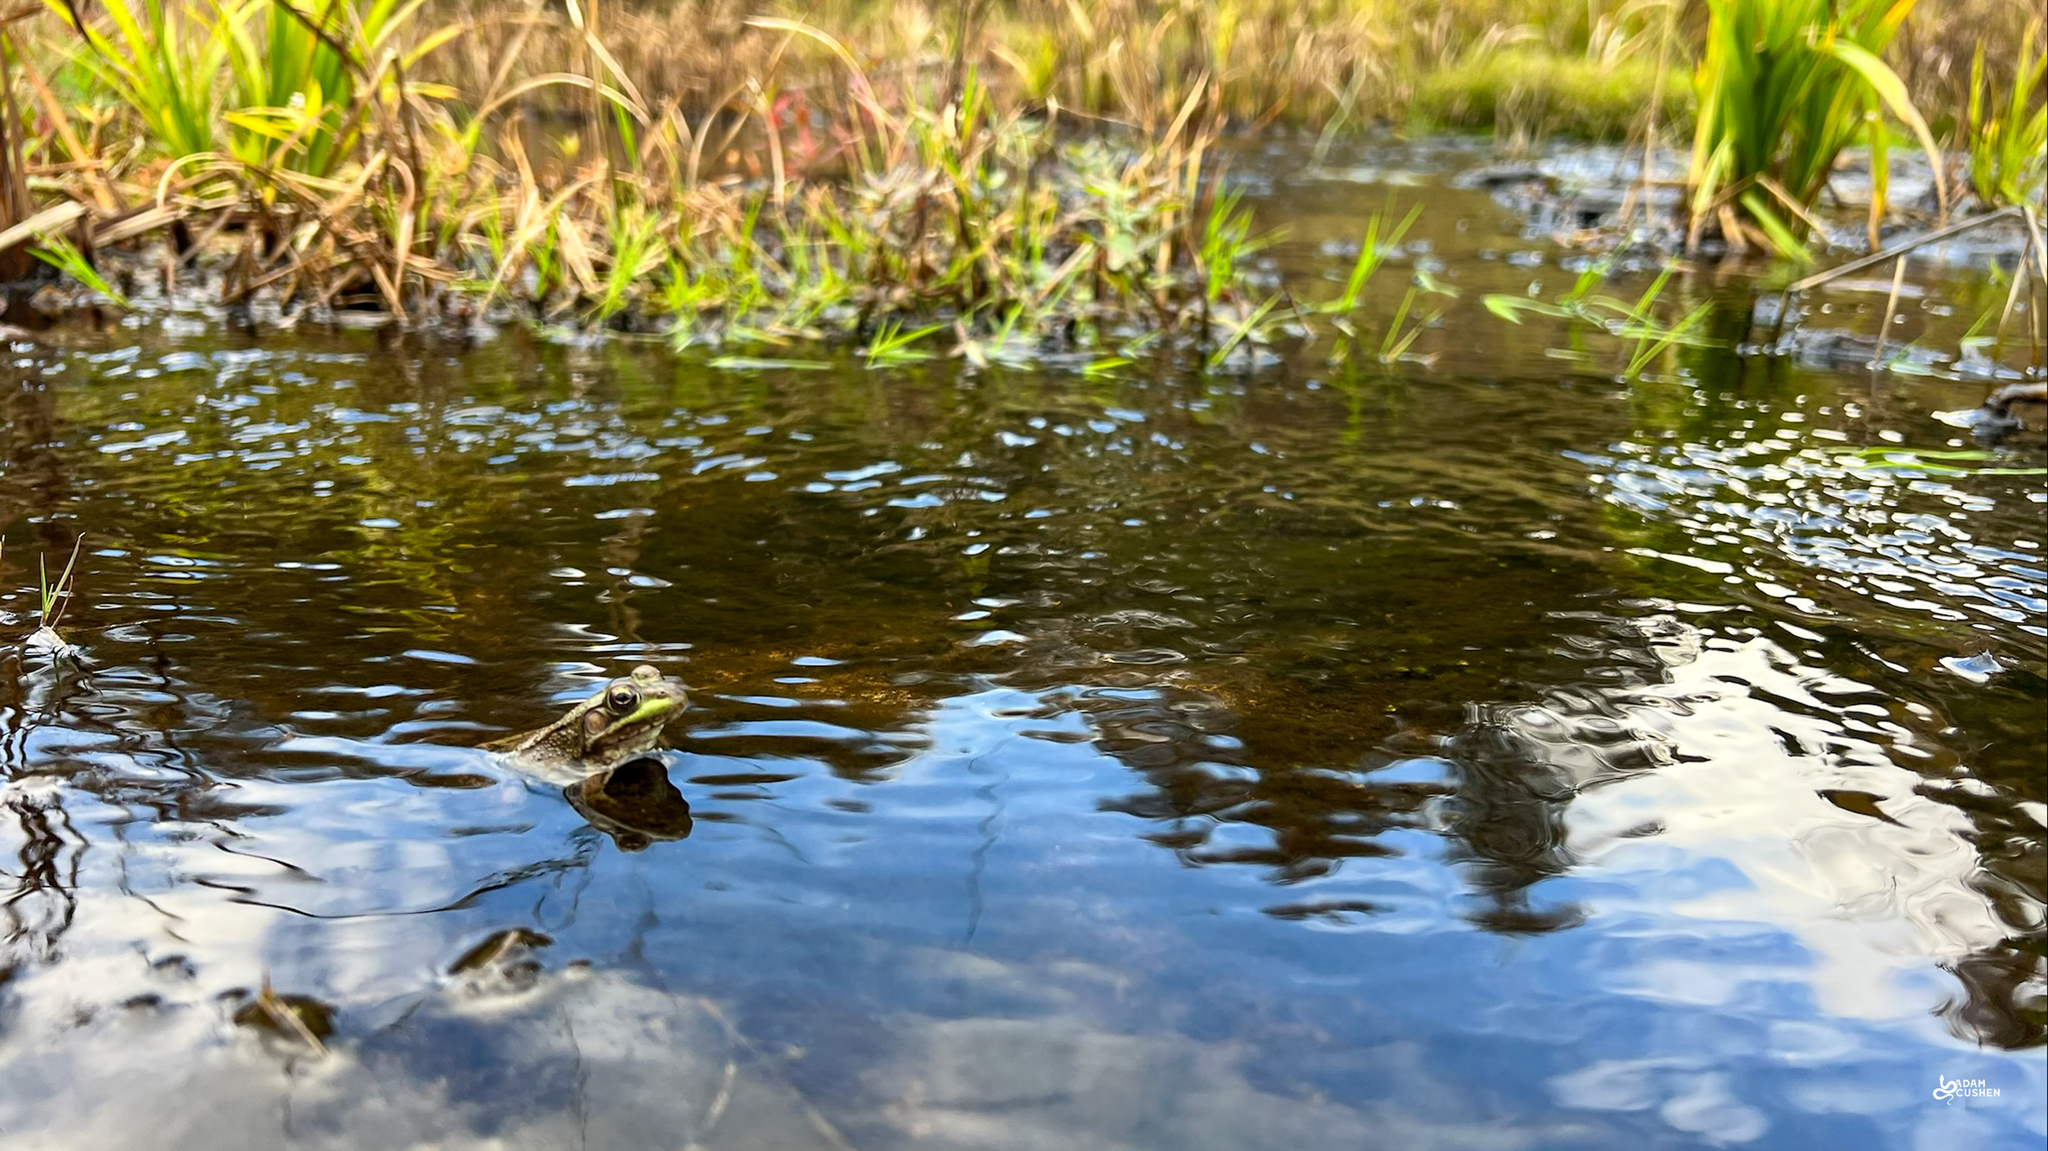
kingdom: Animalia
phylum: Chordata
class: Amphibia
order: Anura
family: Ranidae
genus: Lithobates
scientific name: Lithobates clamitans
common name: Green frog
